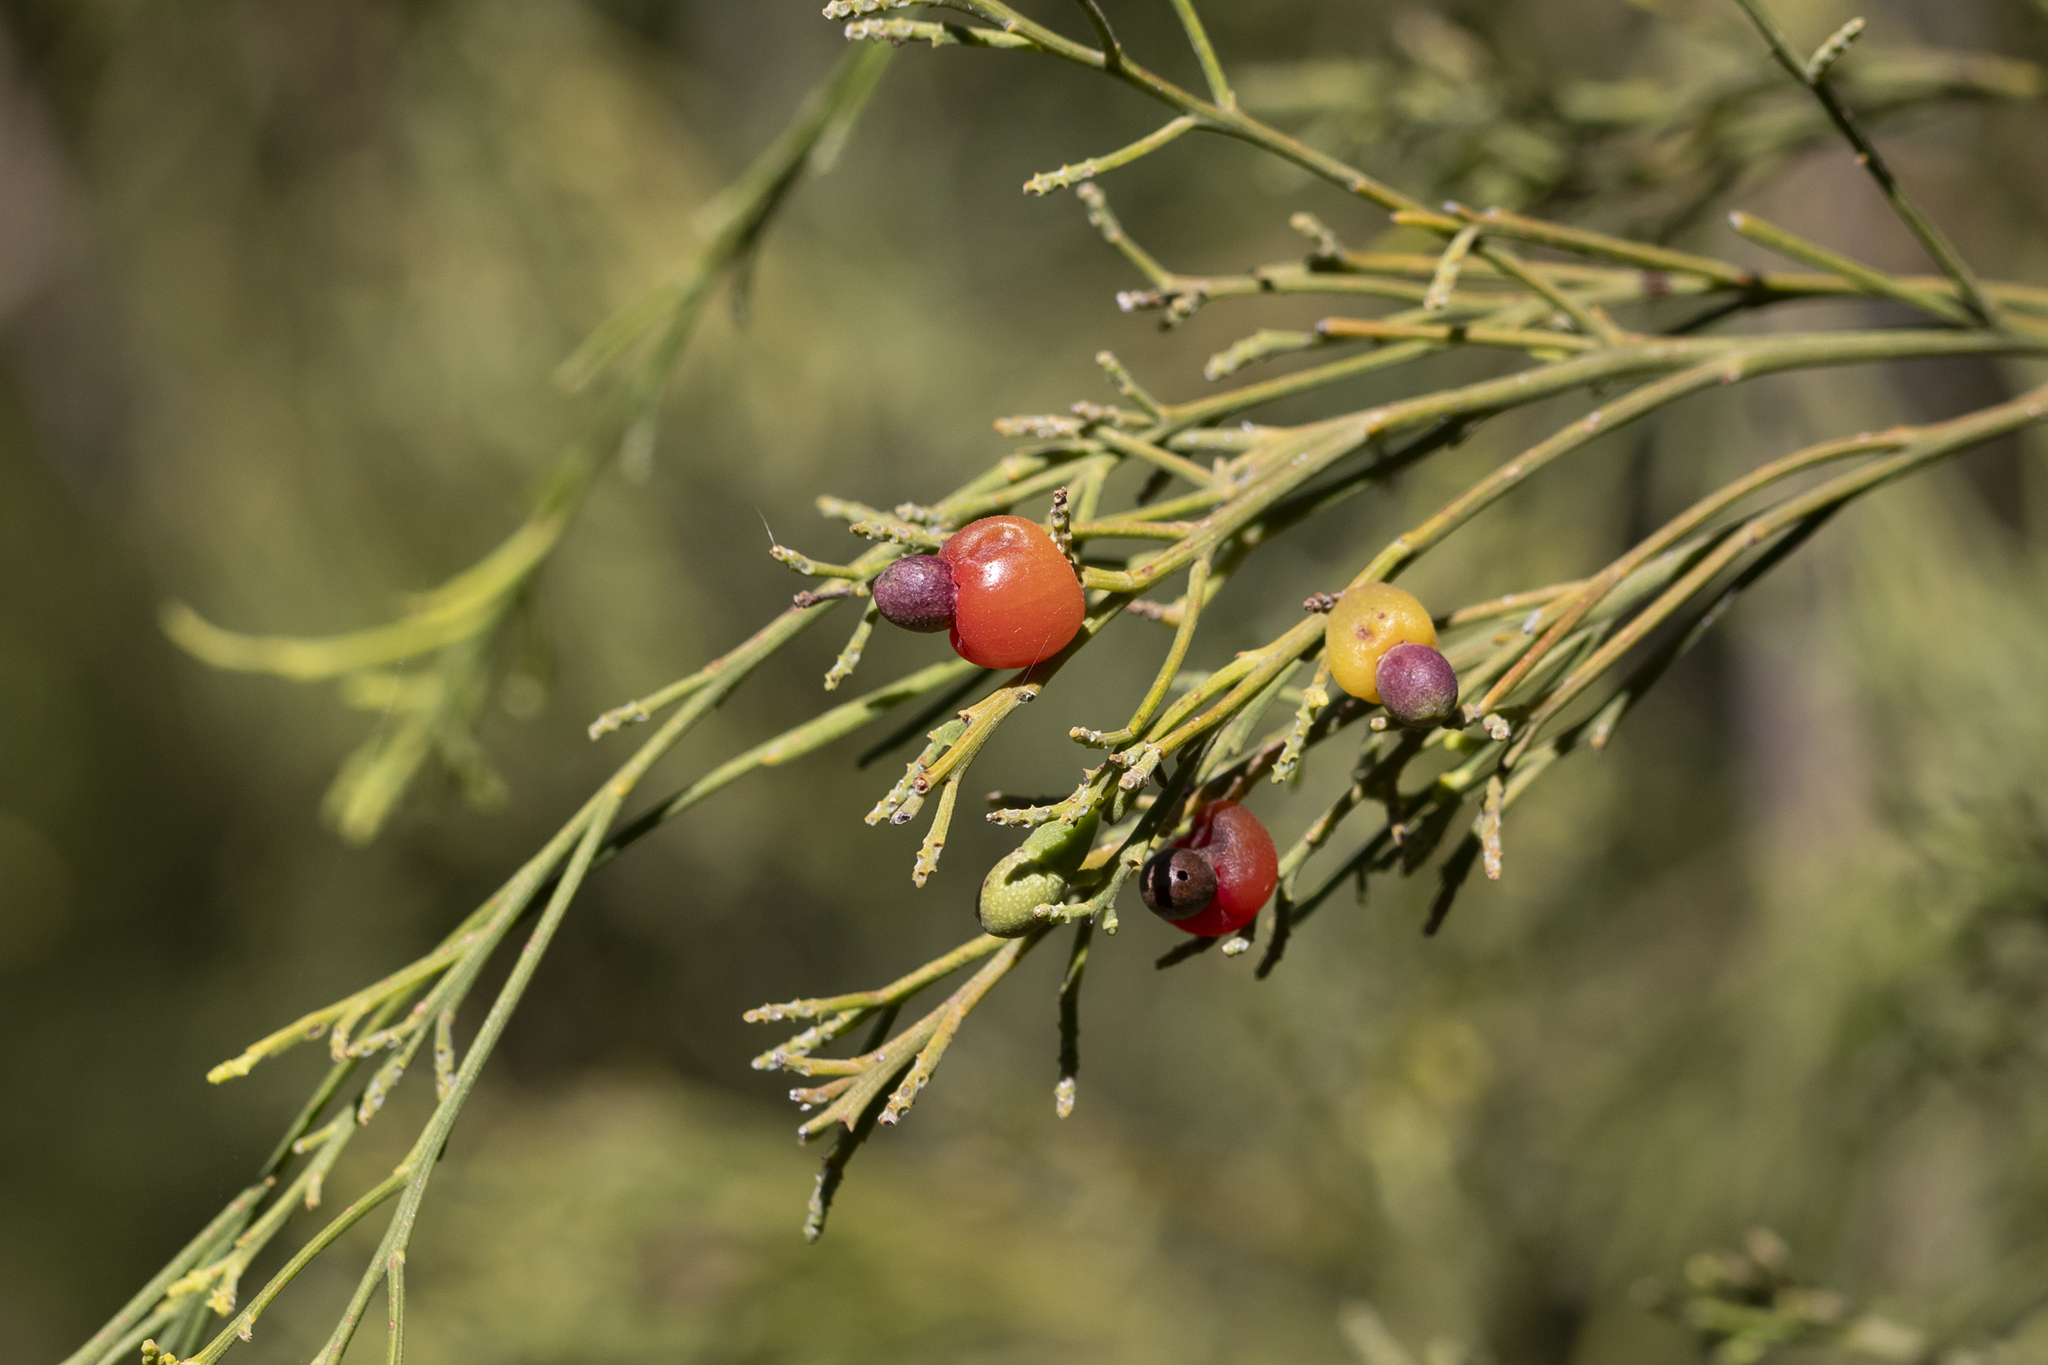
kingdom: Plantae
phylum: Tracheophyta
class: Magnoliopsida
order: Santalales
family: Santalaceae
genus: Exocarpos
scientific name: Exocarpos cupressiformis
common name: Cherry ballart
